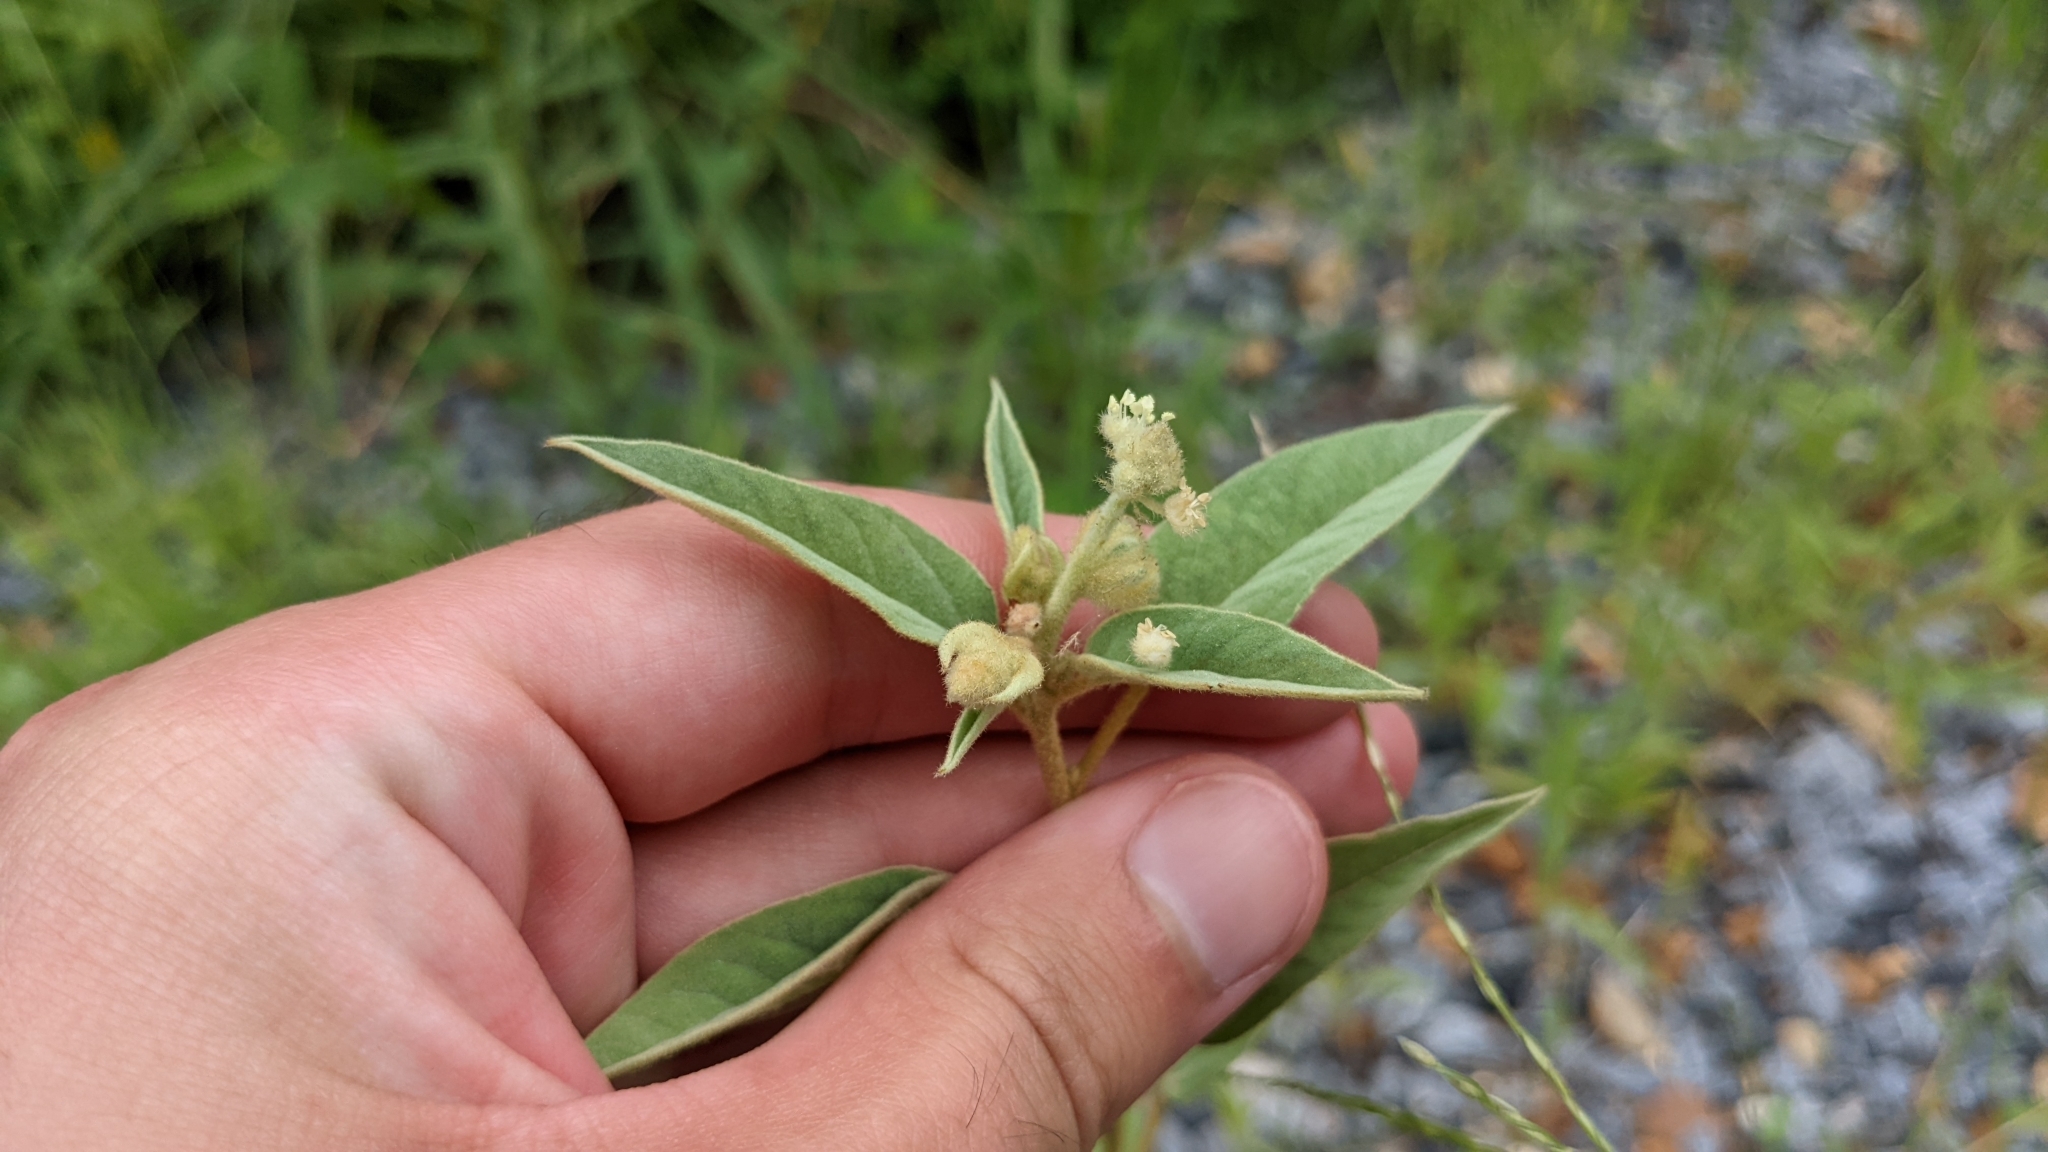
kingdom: Plantae
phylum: Tracheophyta
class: Magnoliopsida
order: Malpighiales
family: Euphorbiaceae
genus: Croton
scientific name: Croton lindheimeri
